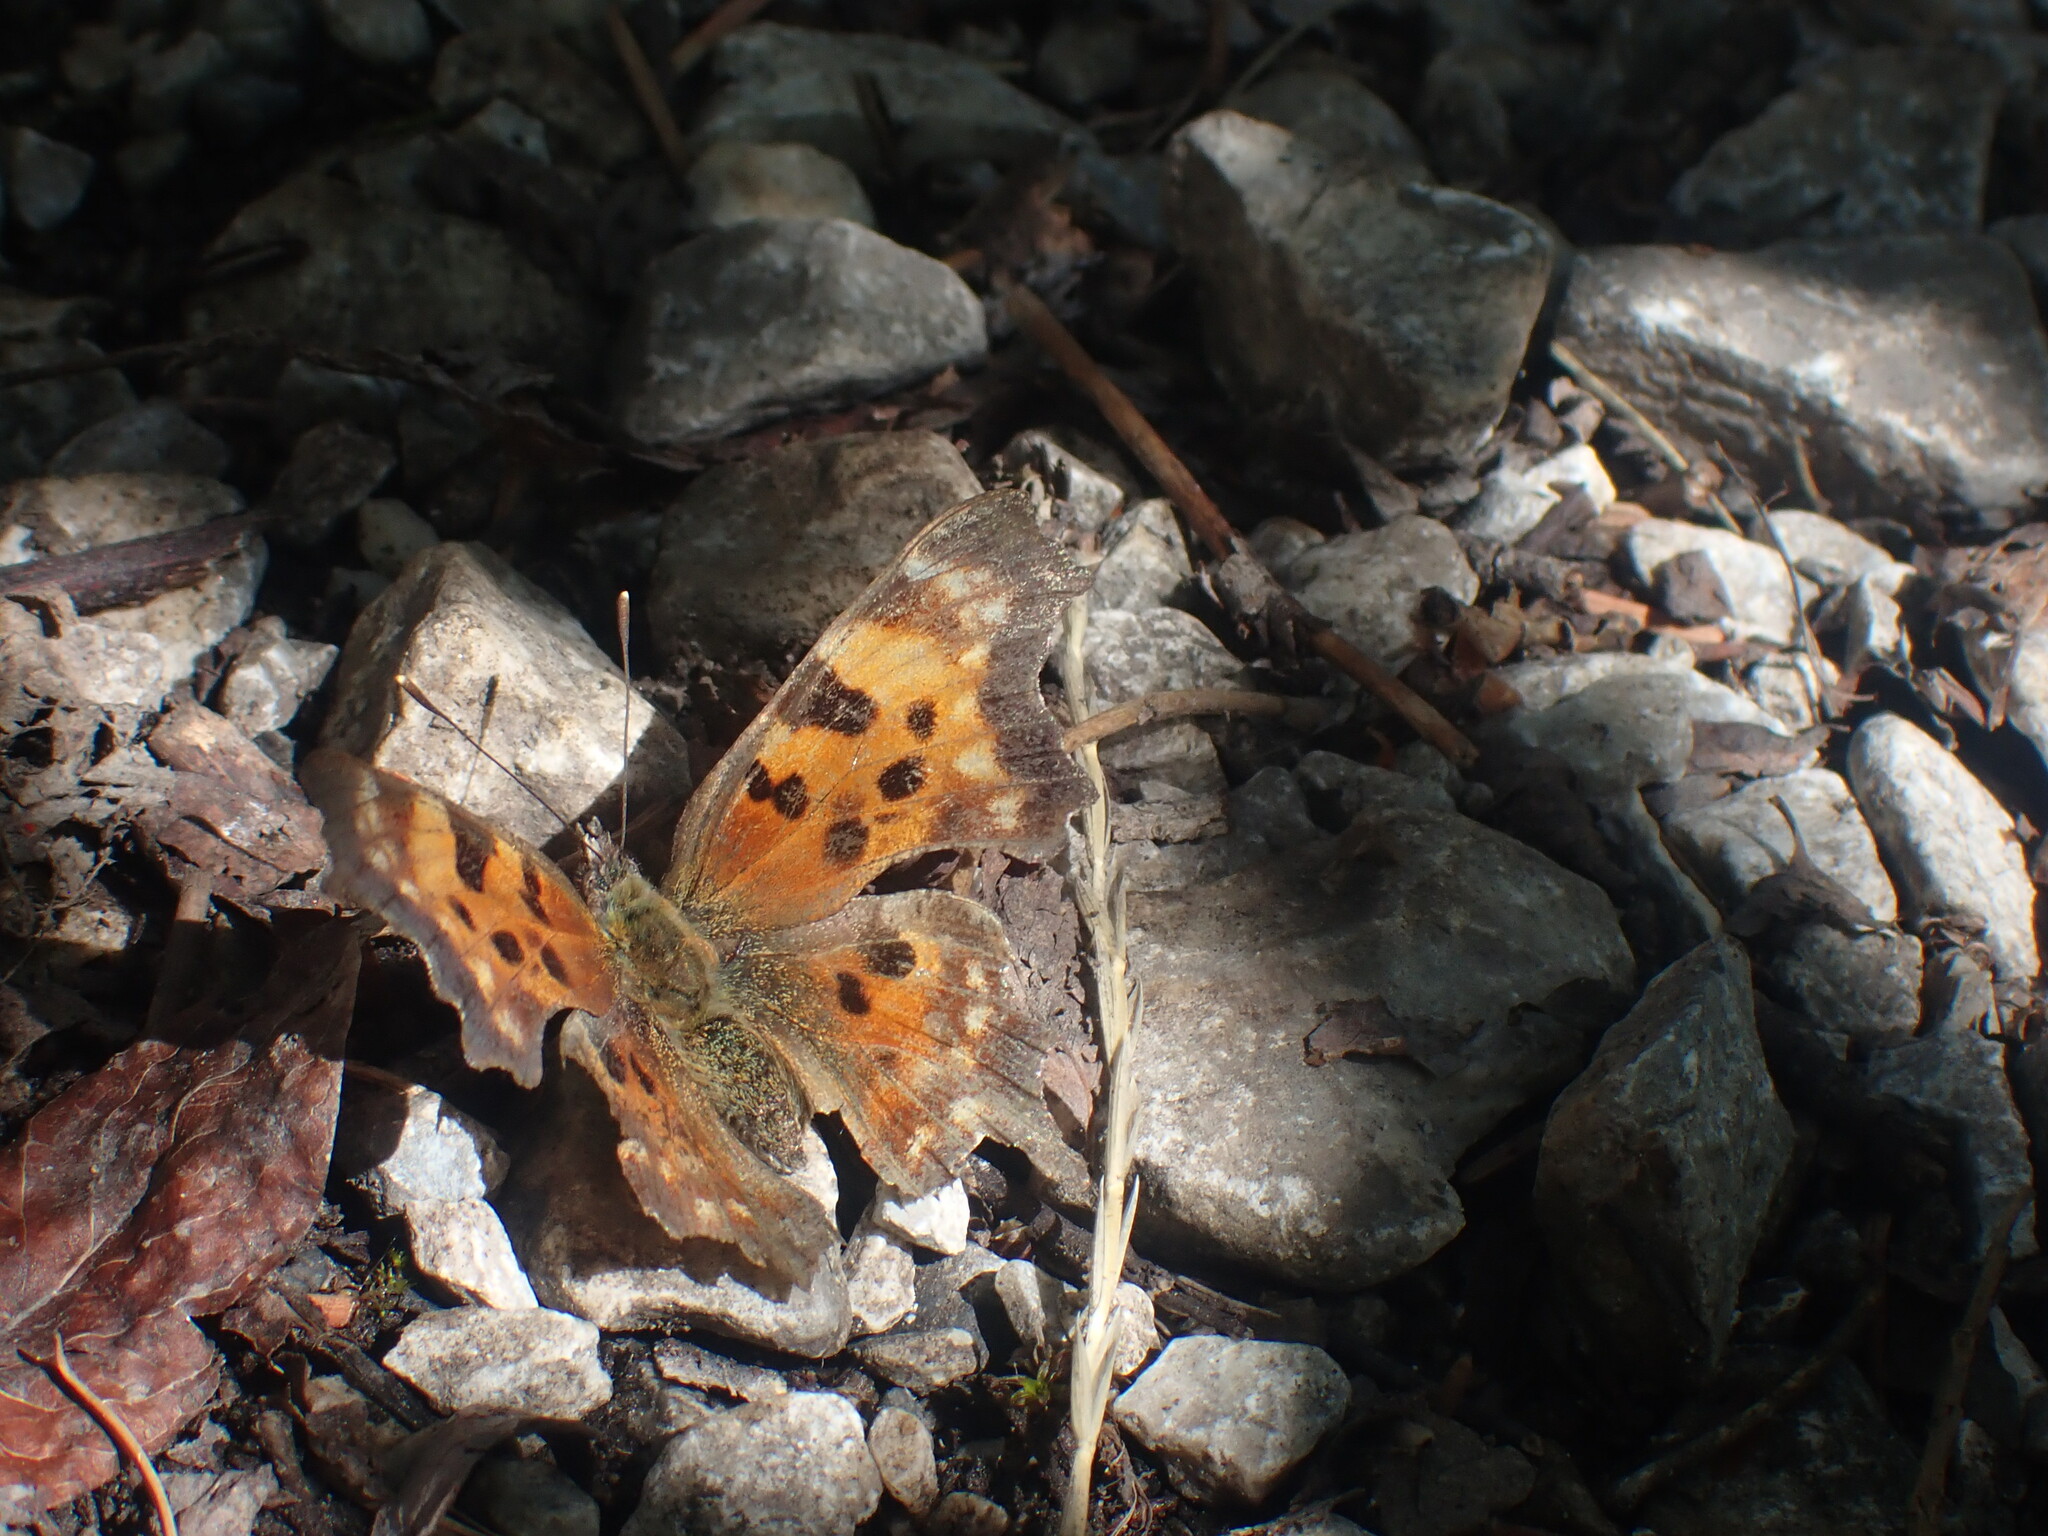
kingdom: Animalia
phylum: Arthropoda
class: Insecta
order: Lepidoptera
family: Nymphalidae
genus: Polygonia
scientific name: Polygonia faunus
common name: Green comma
